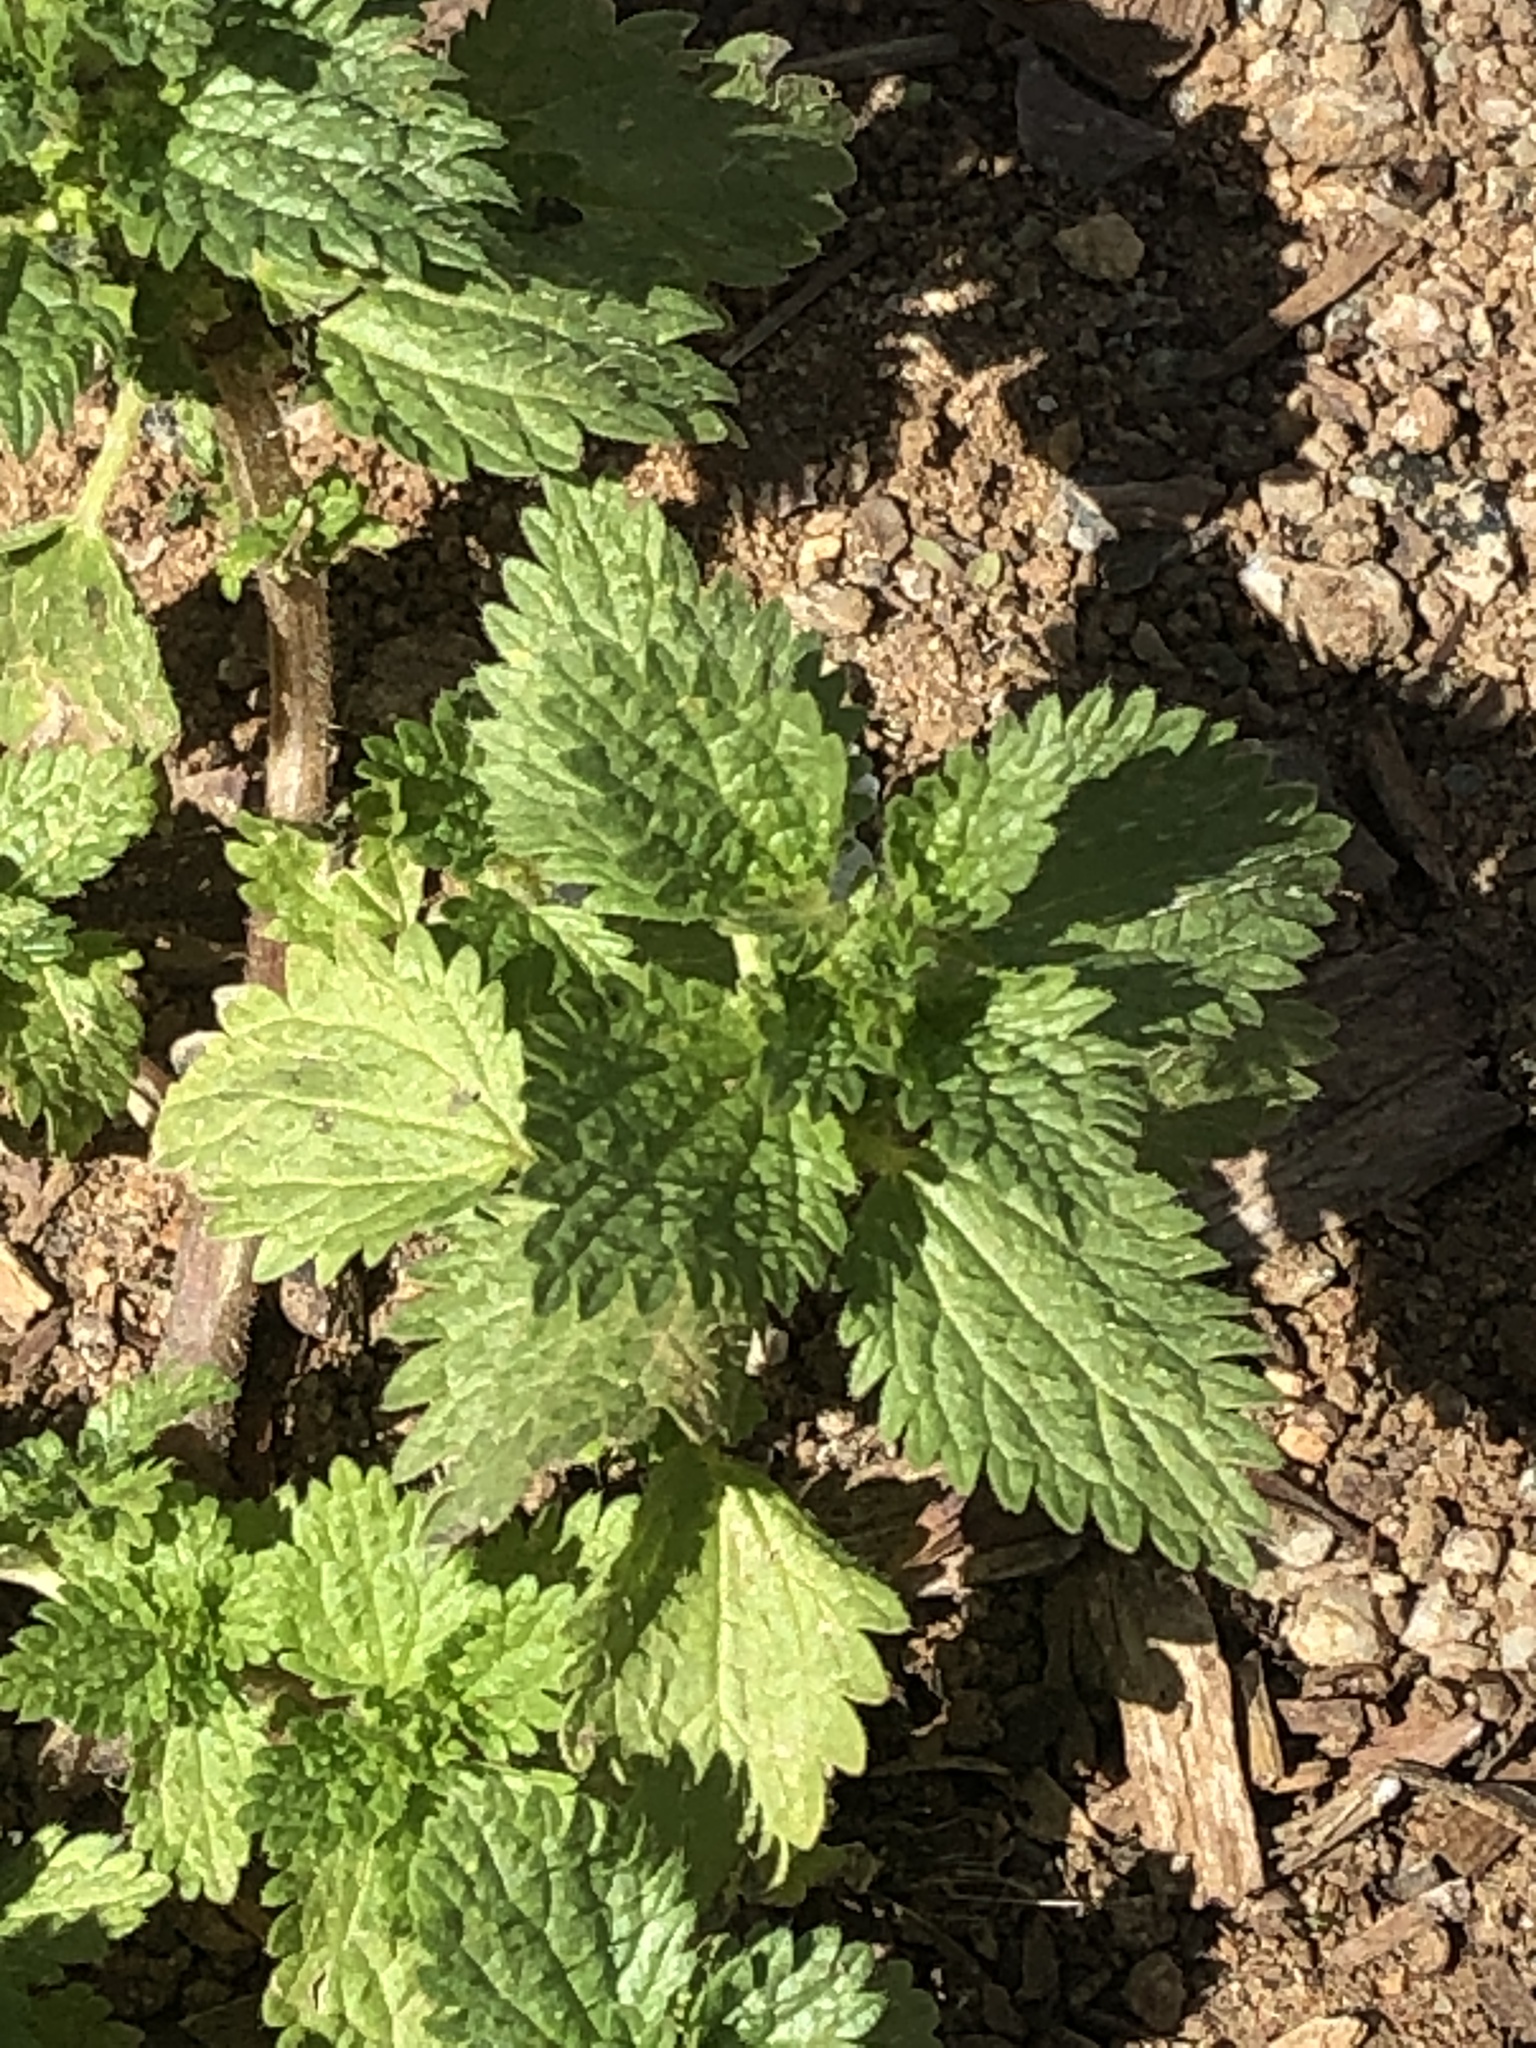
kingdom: Plantae
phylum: Tracheophyta
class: Magnoliopsida
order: Rosales
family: Urticaceae
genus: Urtica
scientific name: Urtica urens
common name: Dwarf nettle
